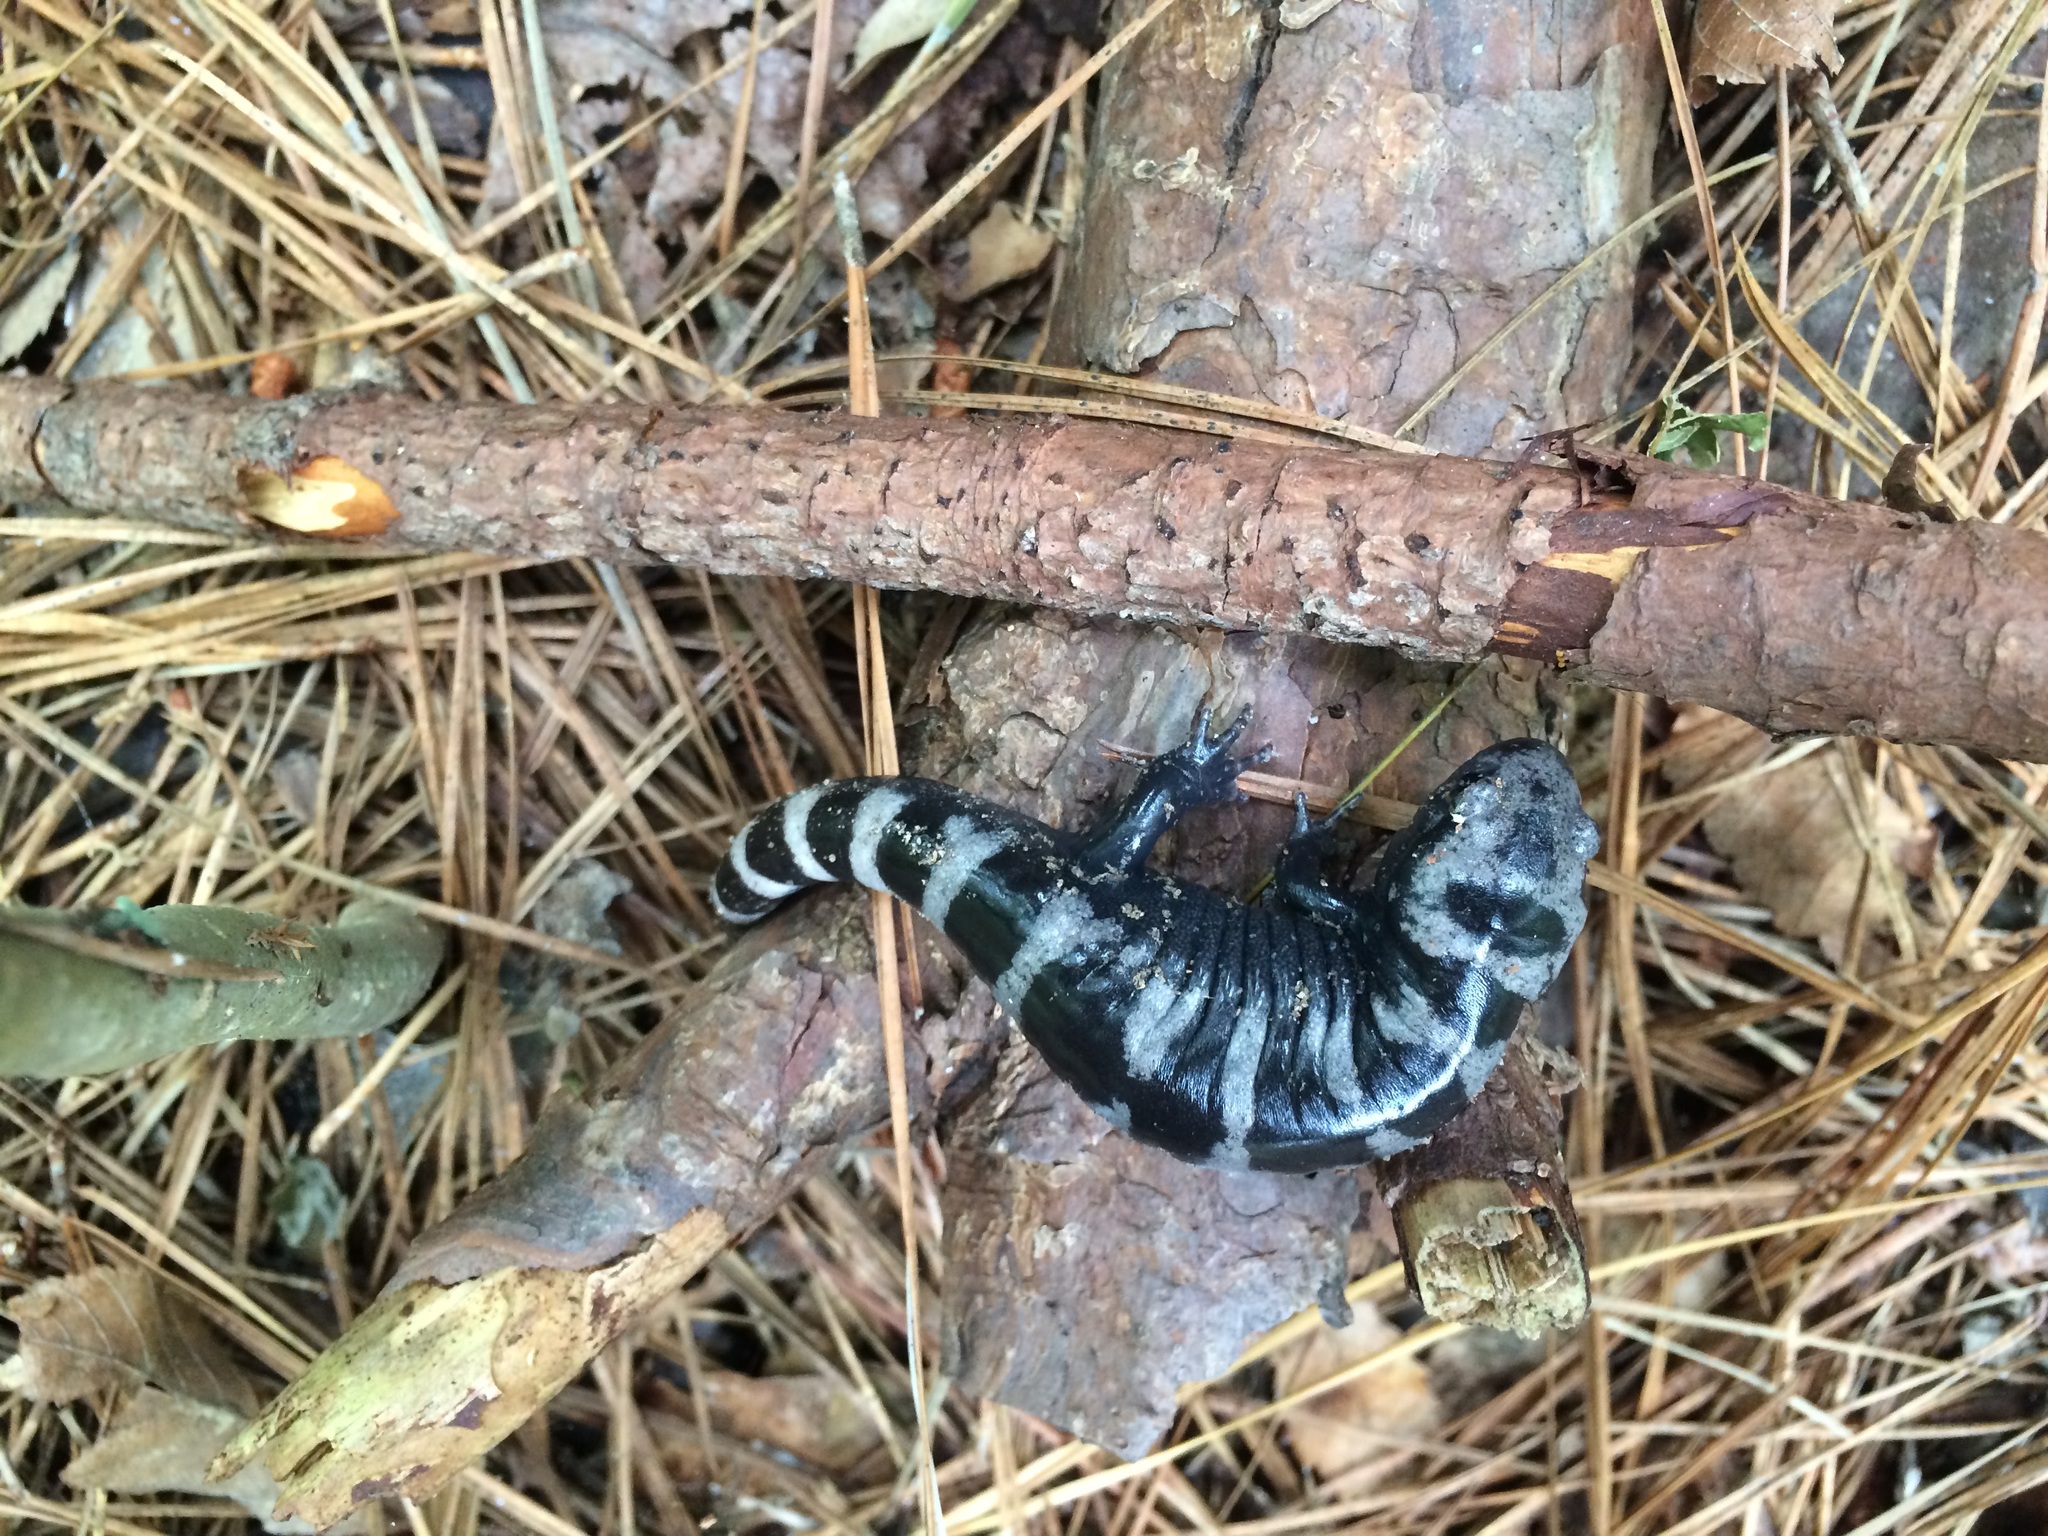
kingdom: Animalia
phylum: Chordata
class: Amphibia
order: Caudata
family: Ambystomatidae
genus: Ambystoma
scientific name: Ambystoma opacum
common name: Marbled salamander
